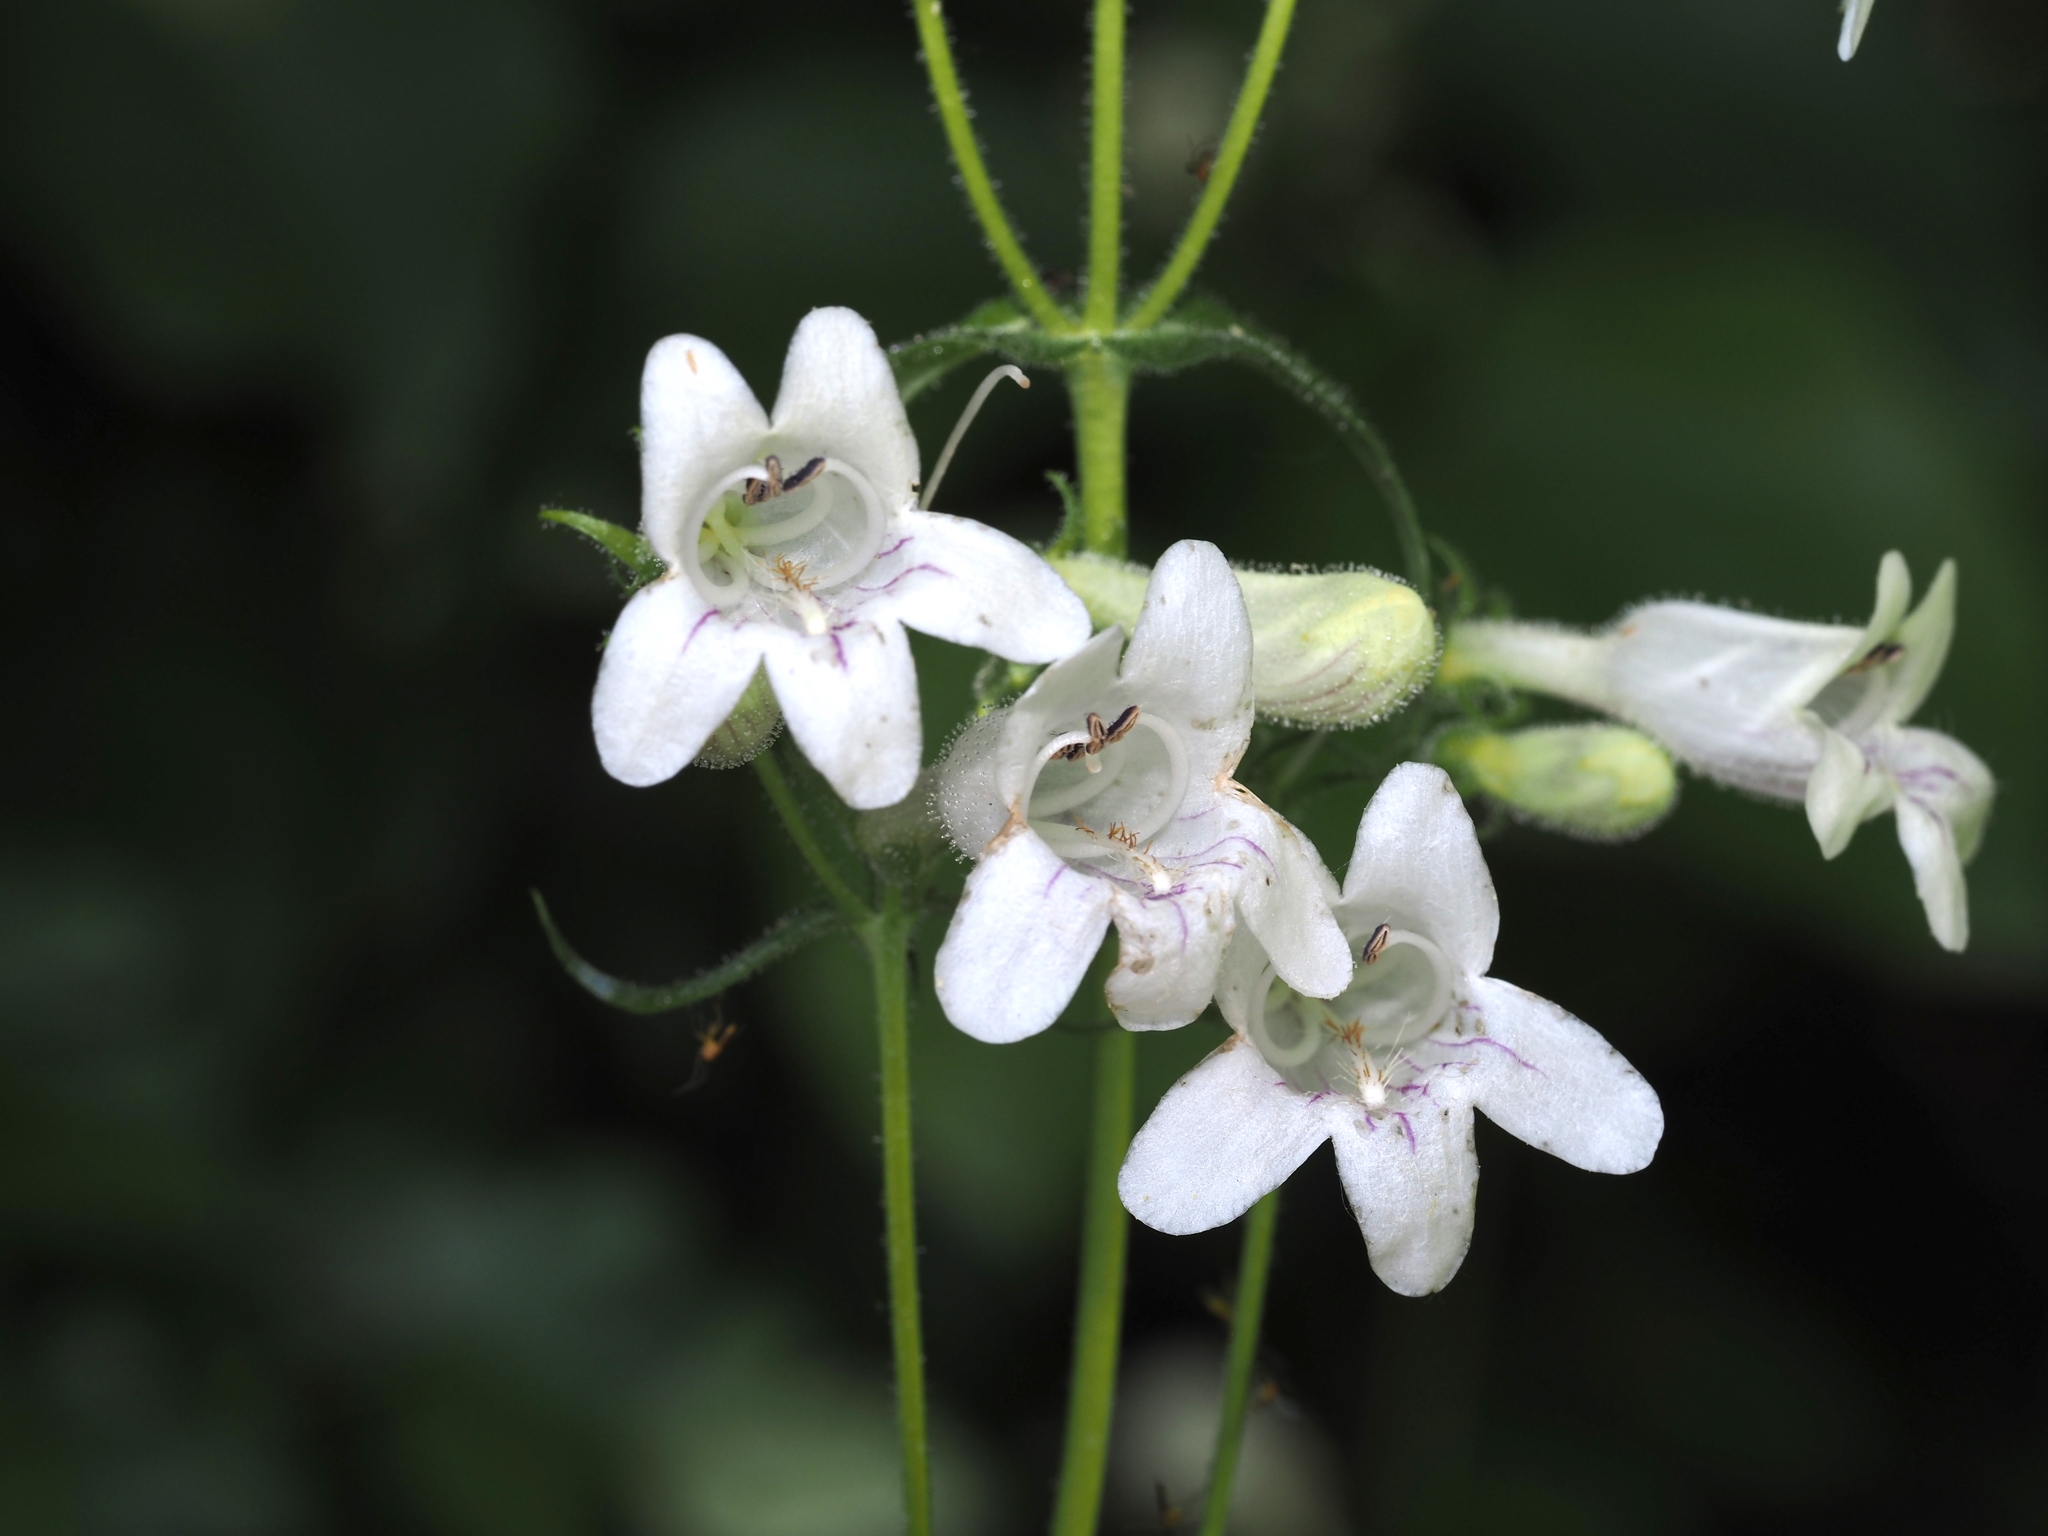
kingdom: Plantae
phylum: Tracheophyta
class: Magnoliopsida
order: Lamiales
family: Plantaginaceae
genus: Penstemon
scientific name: Penstemon digitalis
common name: Foxglove beardtongue
